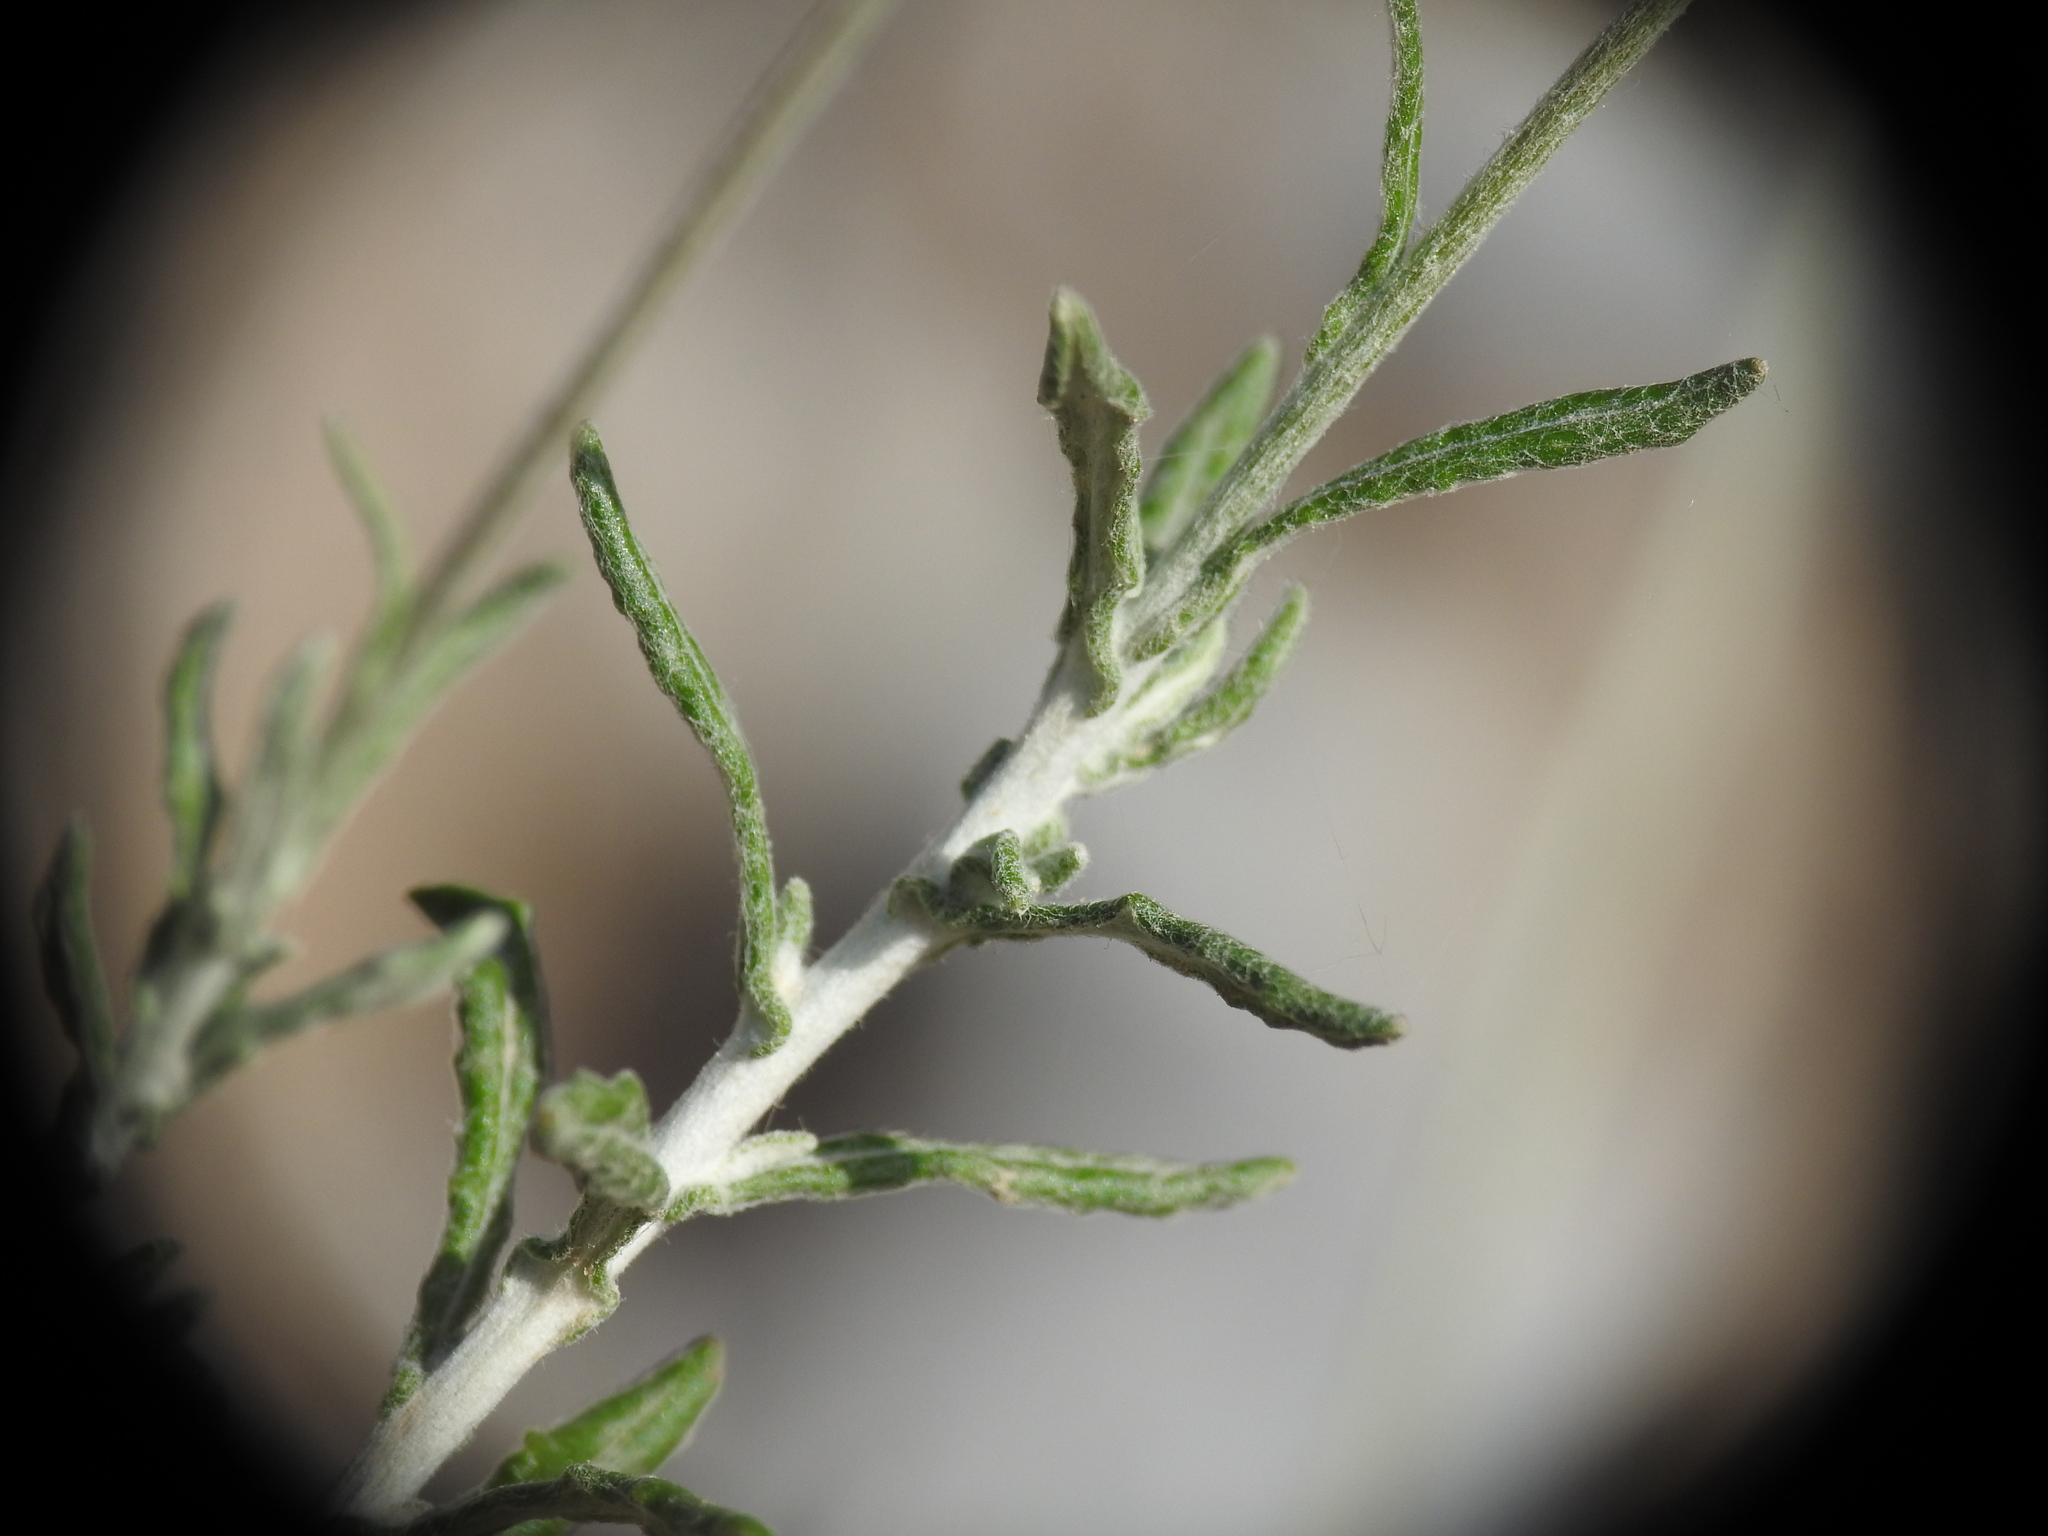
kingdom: Plantae
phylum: Tracheophyta
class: Magnoliopsida
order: Asterales
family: Asteraceae
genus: Phagnalon
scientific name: Phagnalon graecum
